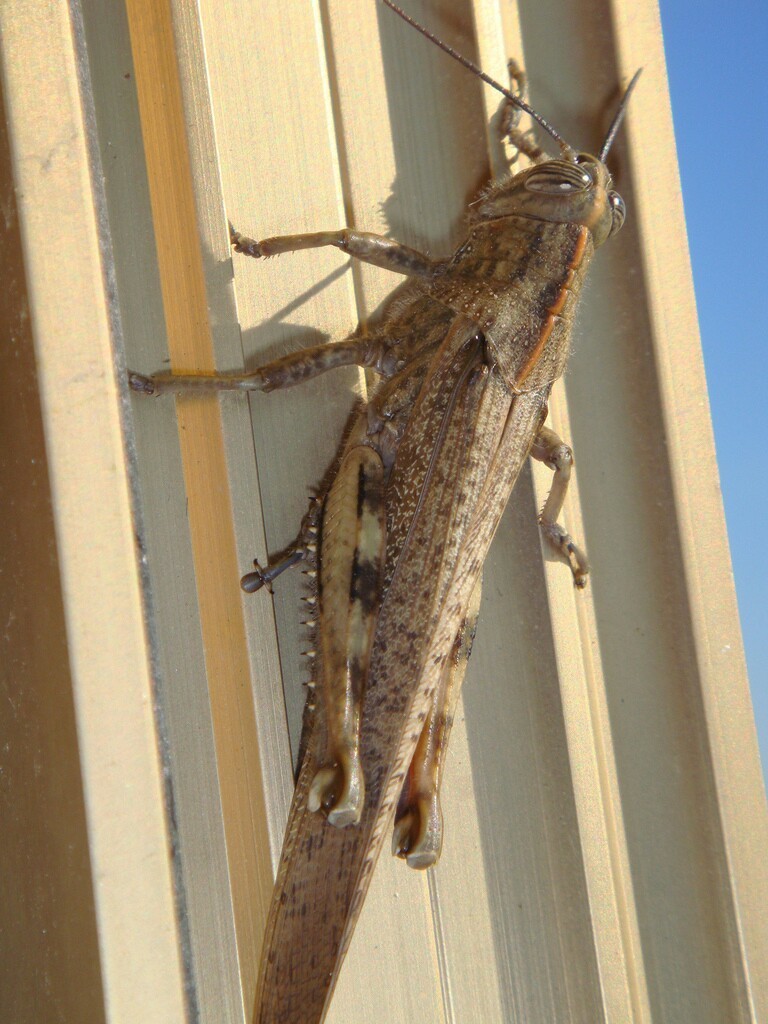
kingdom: Animalia
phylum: Arthropoda
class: Insecta
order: Orthoptera
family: Acrididae
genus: Anacridium
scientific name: Anacridium aegyptium
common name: Egyptian grasshopper
